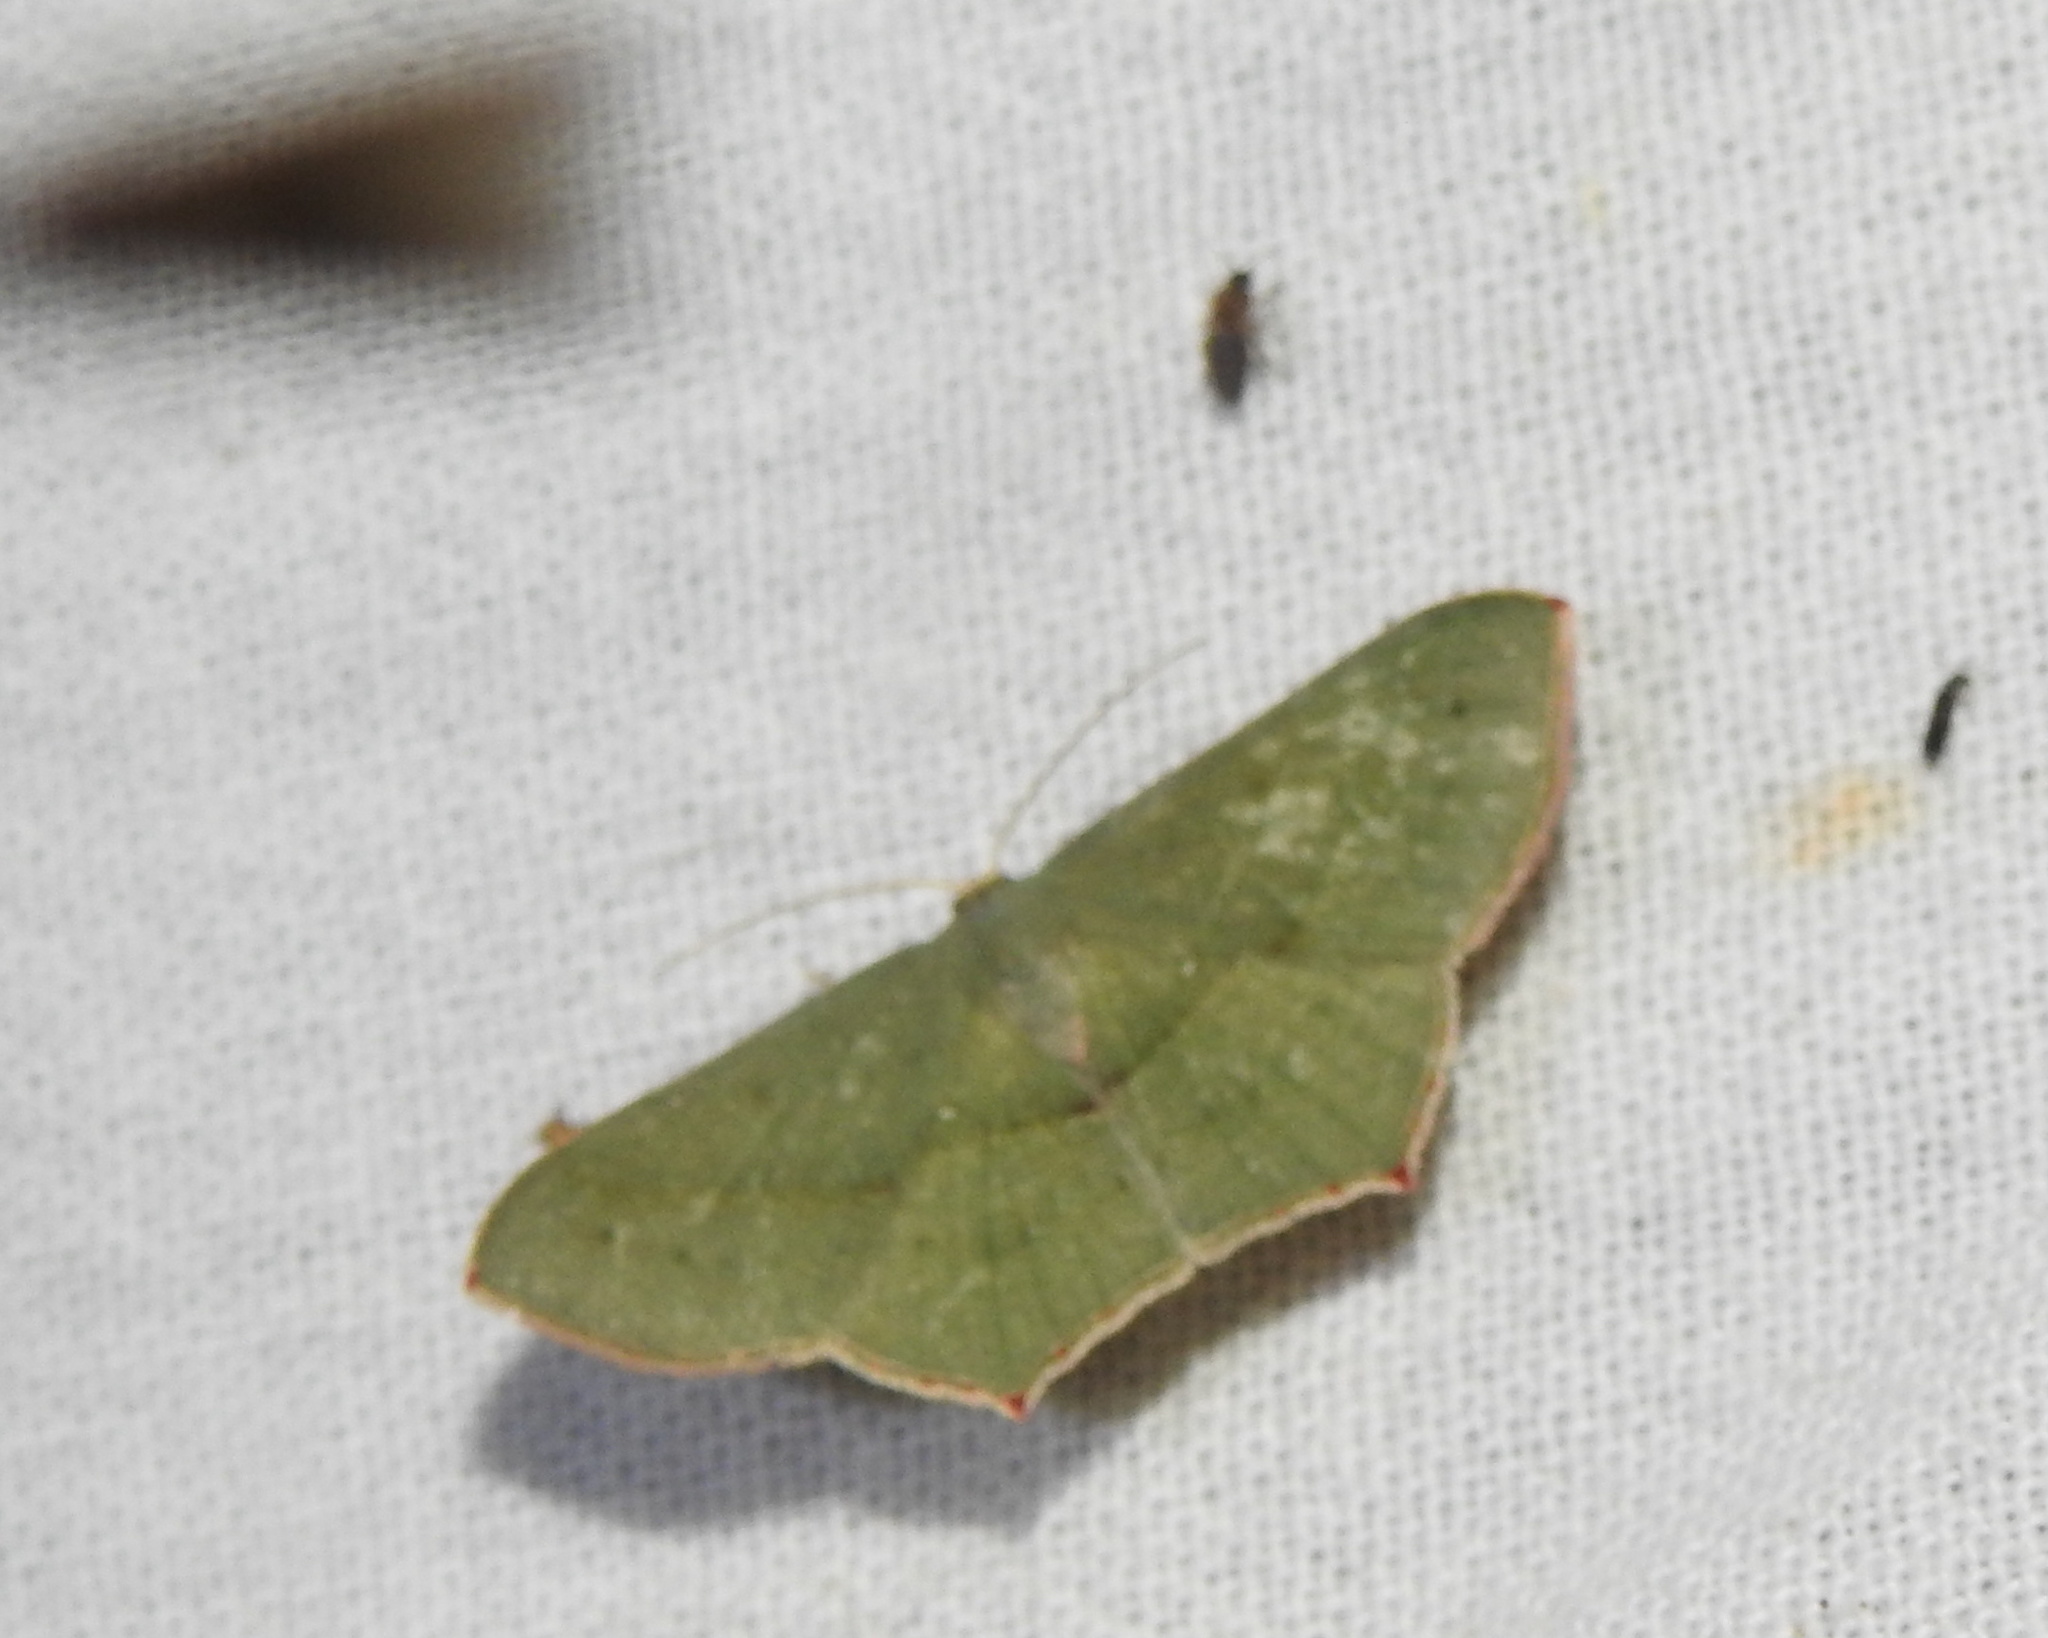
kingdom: Animalia
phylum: Arthropoda
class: Insecta
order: Lepidoptera
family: Geometridae
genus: Traminda
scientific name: Traminda mundissima
